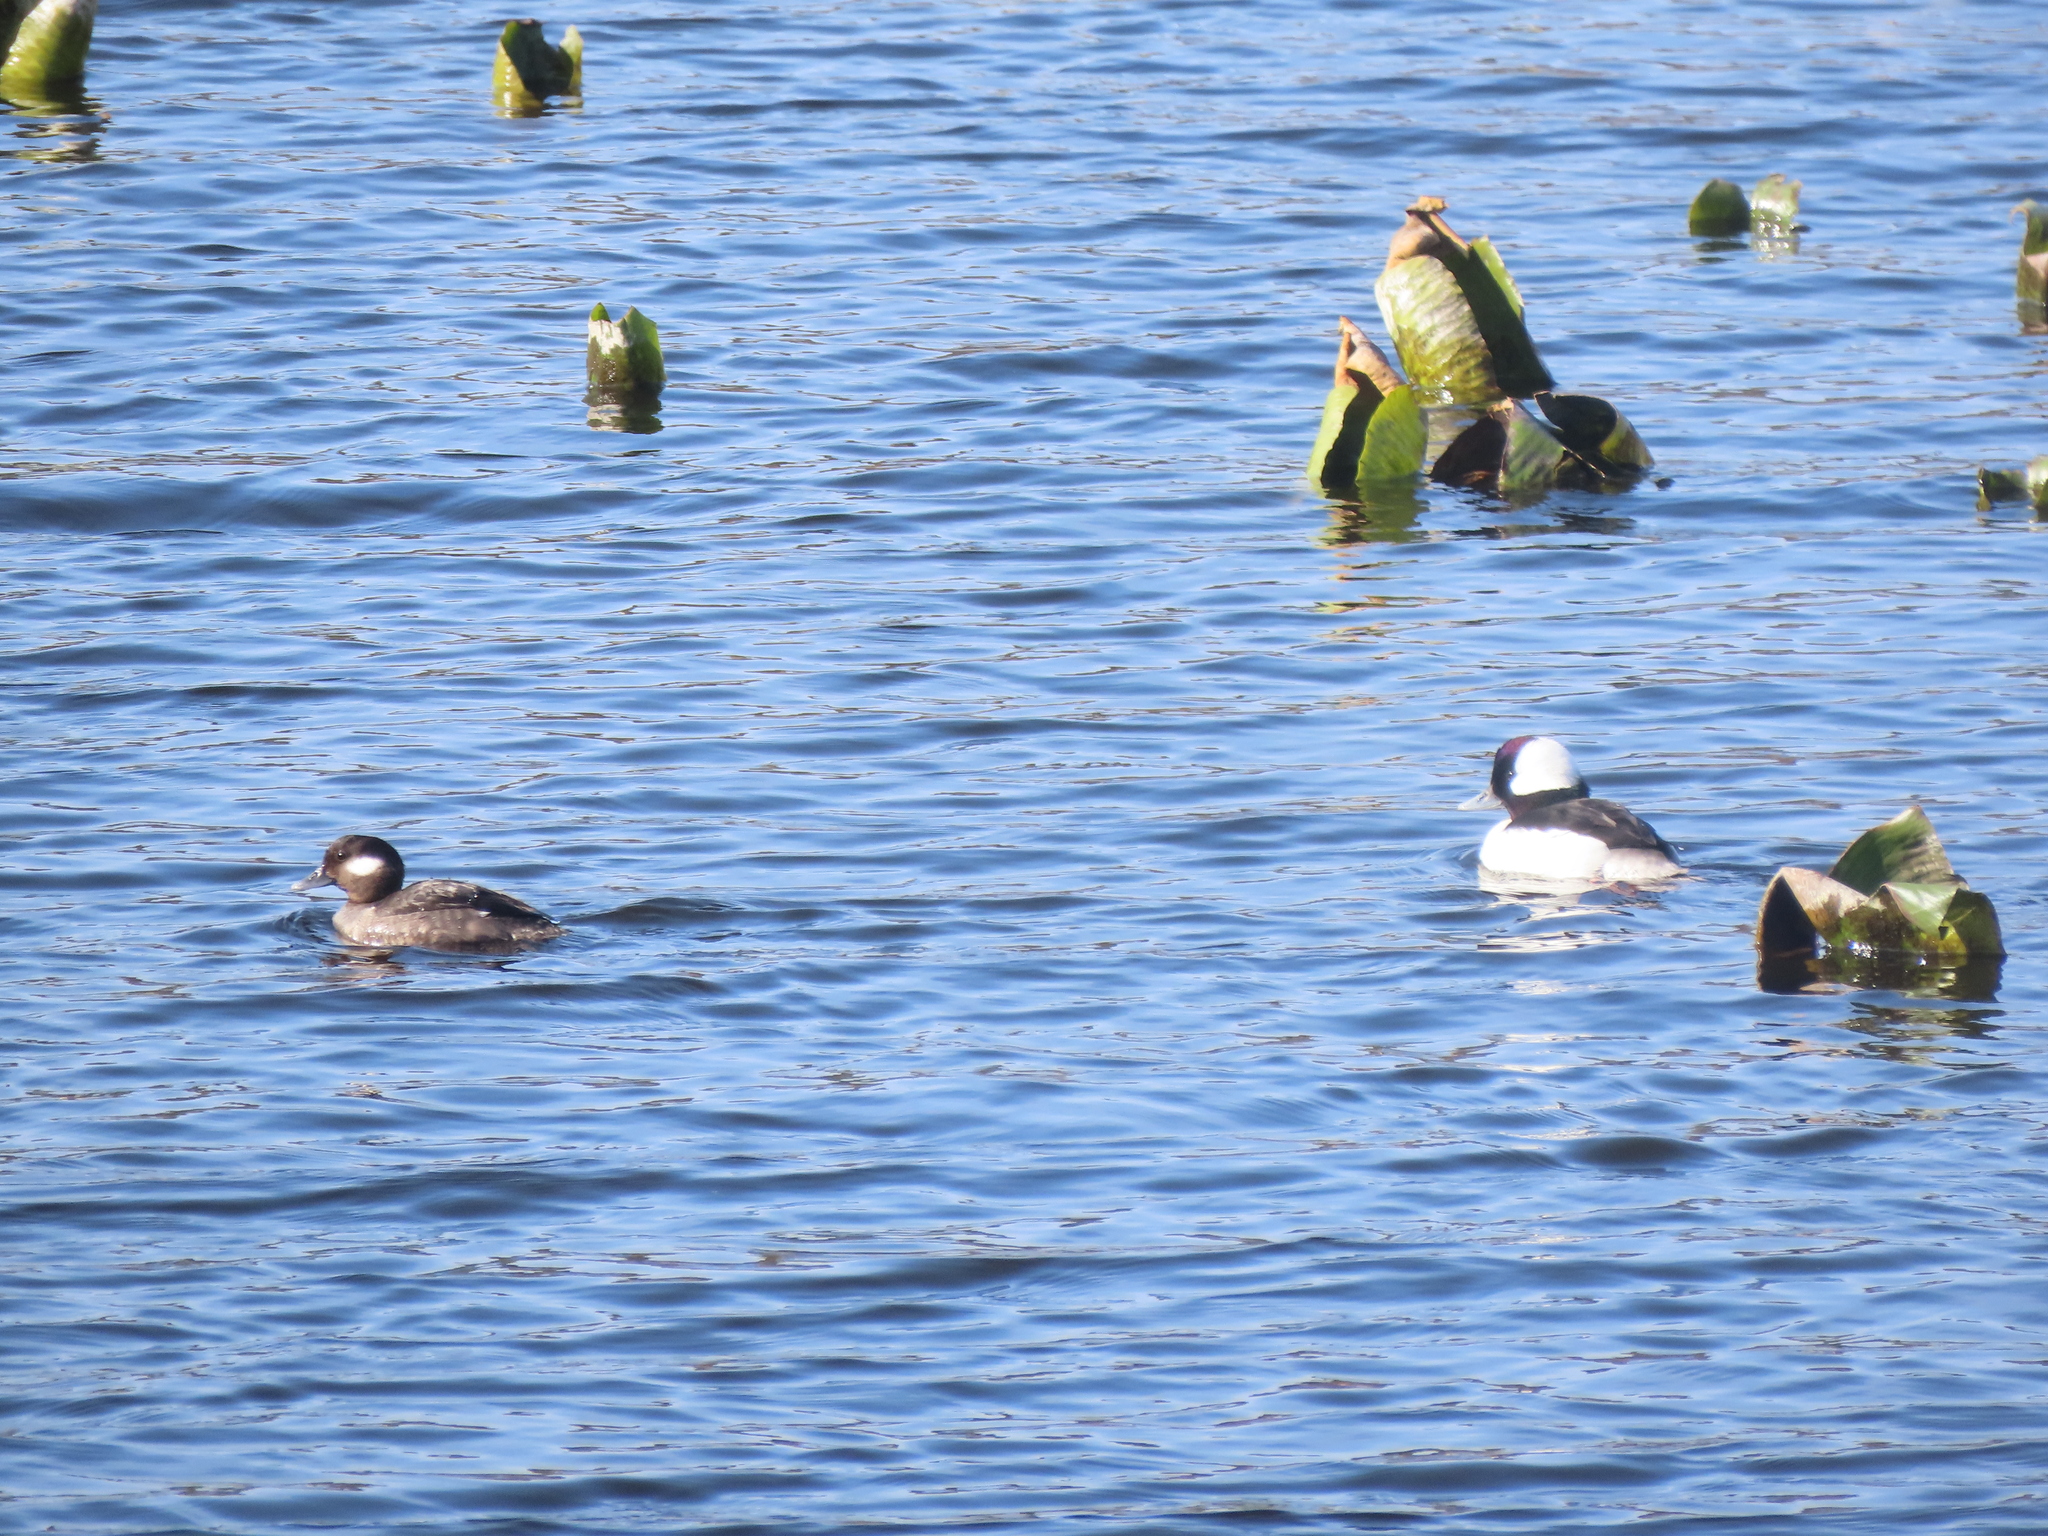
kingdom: Animalia
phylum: Chordata
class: Aves
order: Anseriformes
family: Anatidae
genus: Bucephala
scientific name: Bucephala albeola
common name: Bufflehead
